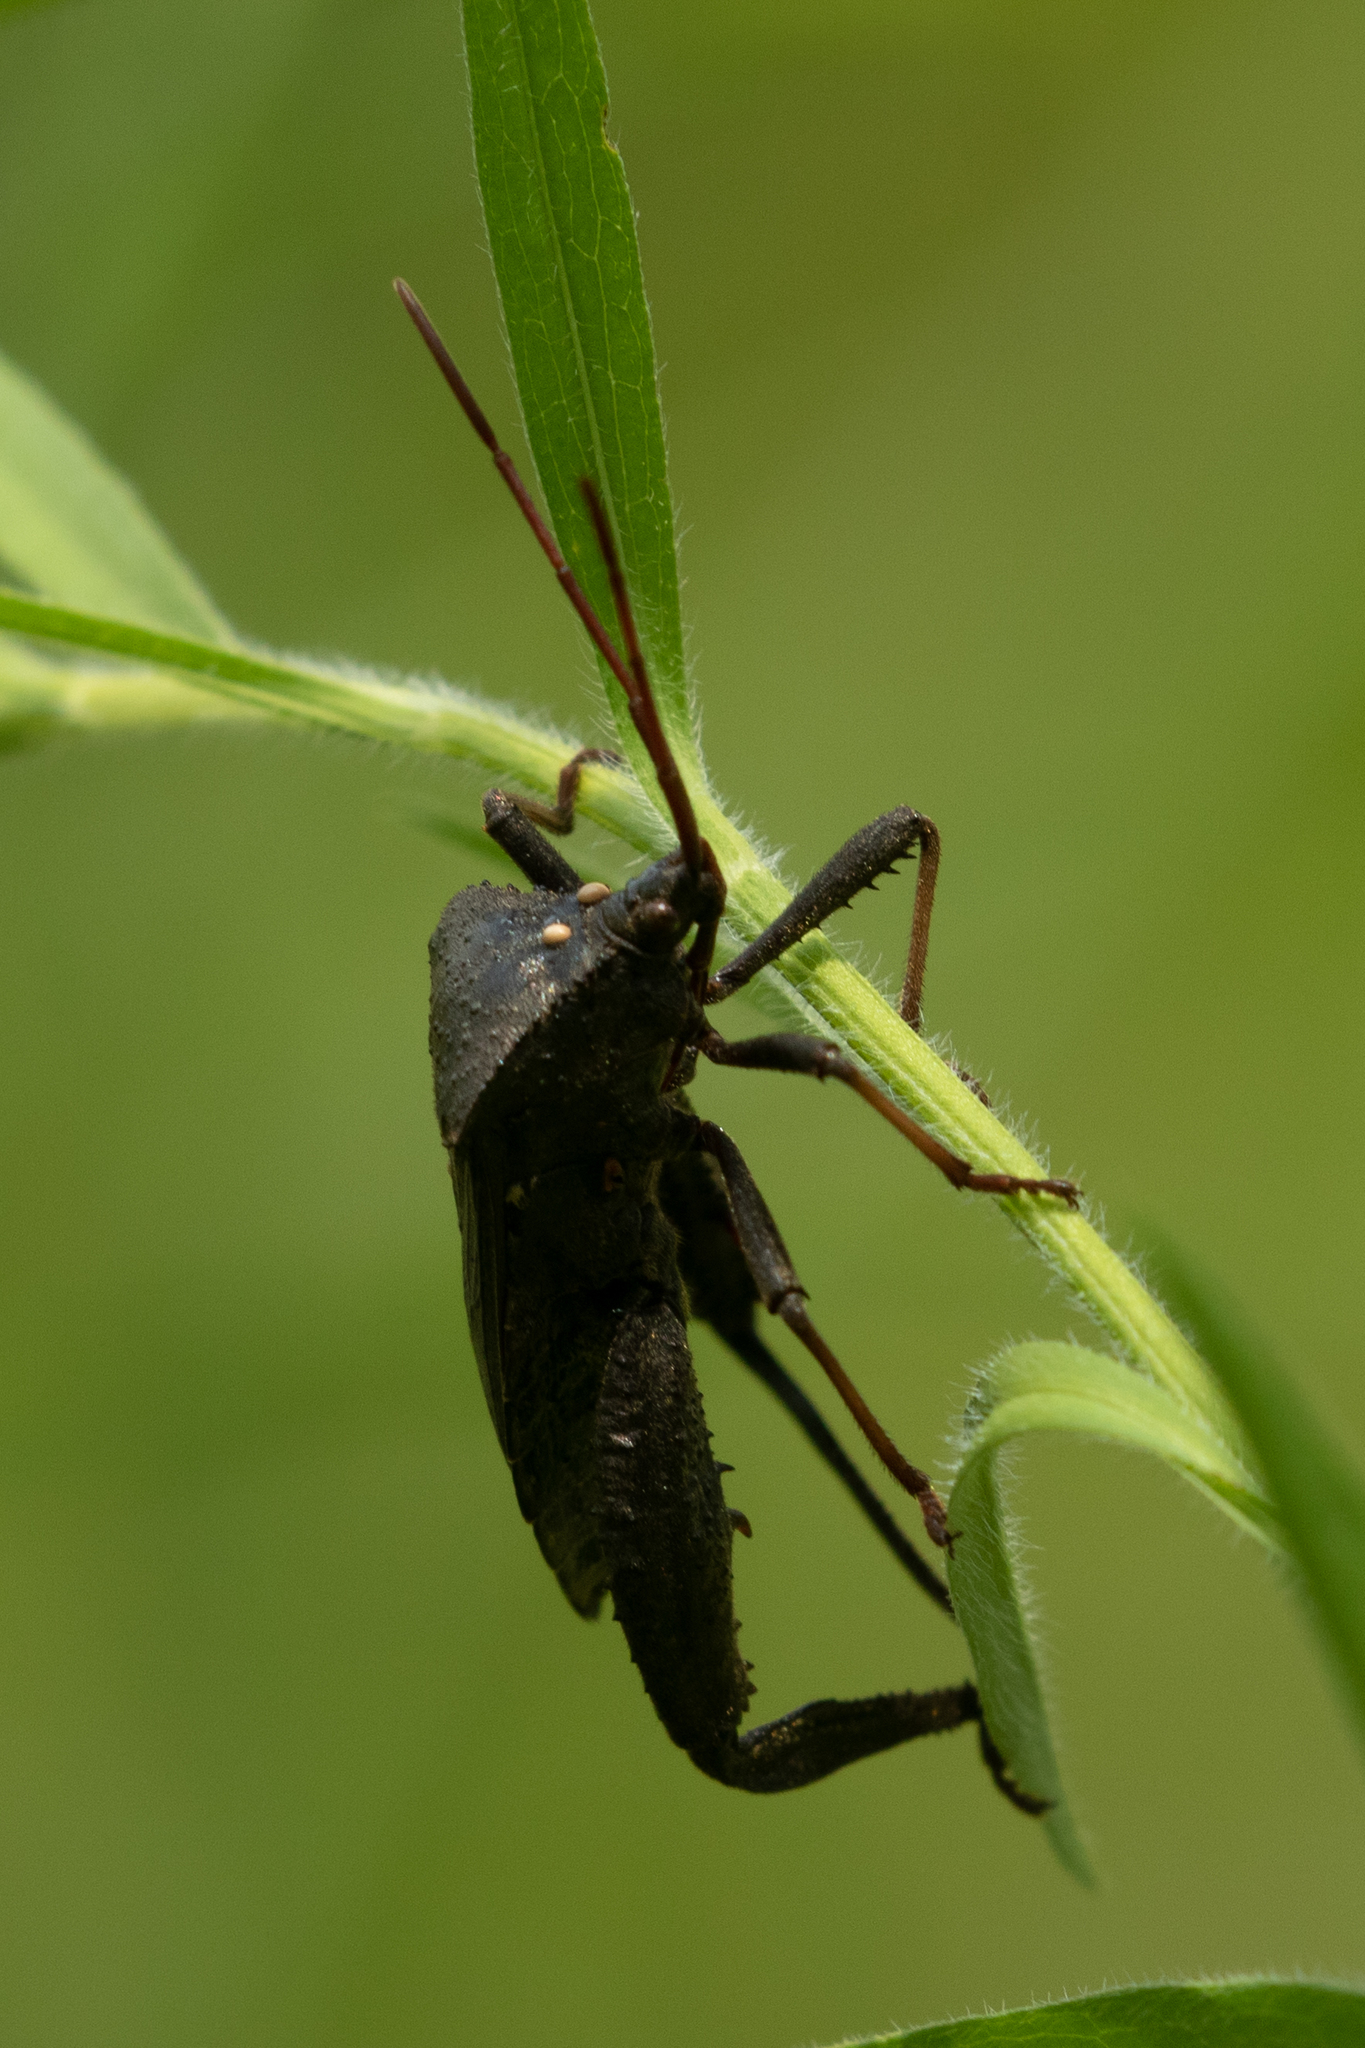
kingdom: Animalia
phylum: Arthropoda
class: Insecta
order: Hemiptera
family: Coreidae
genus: Acanthocephala
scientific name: Acanthocephala femorata
